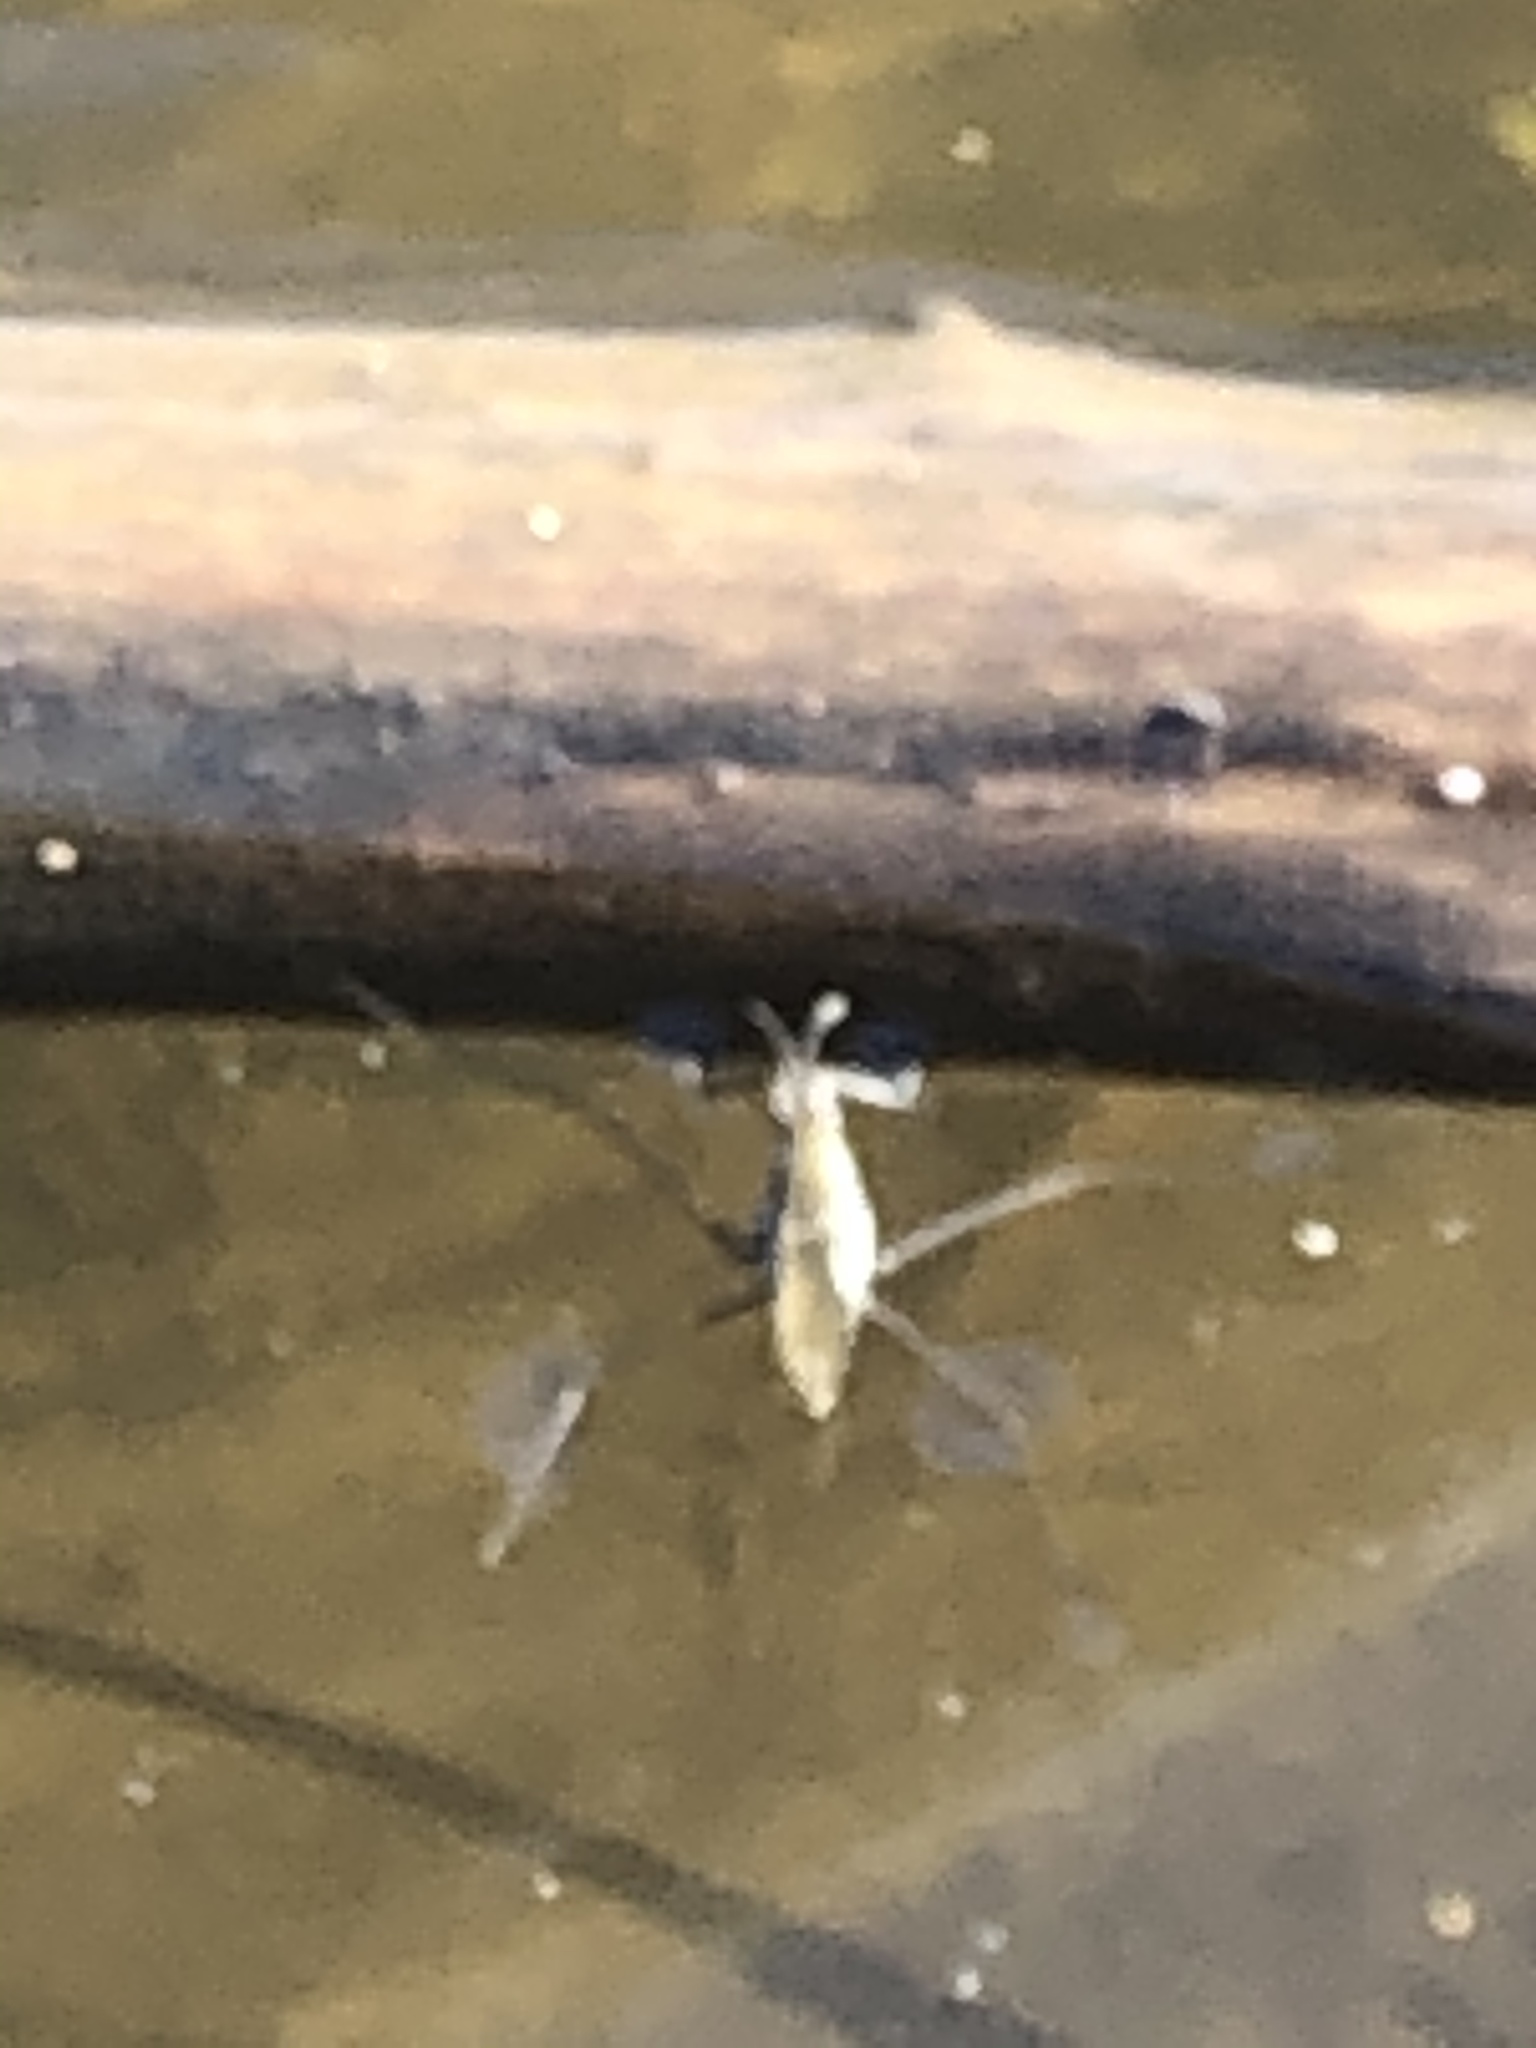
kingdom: Animalia
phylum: Arthropoda
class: Insecta
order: Hemiptera
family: Gerridae
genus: Aquarius
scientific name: Aquarius remigis
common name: Common water strider
